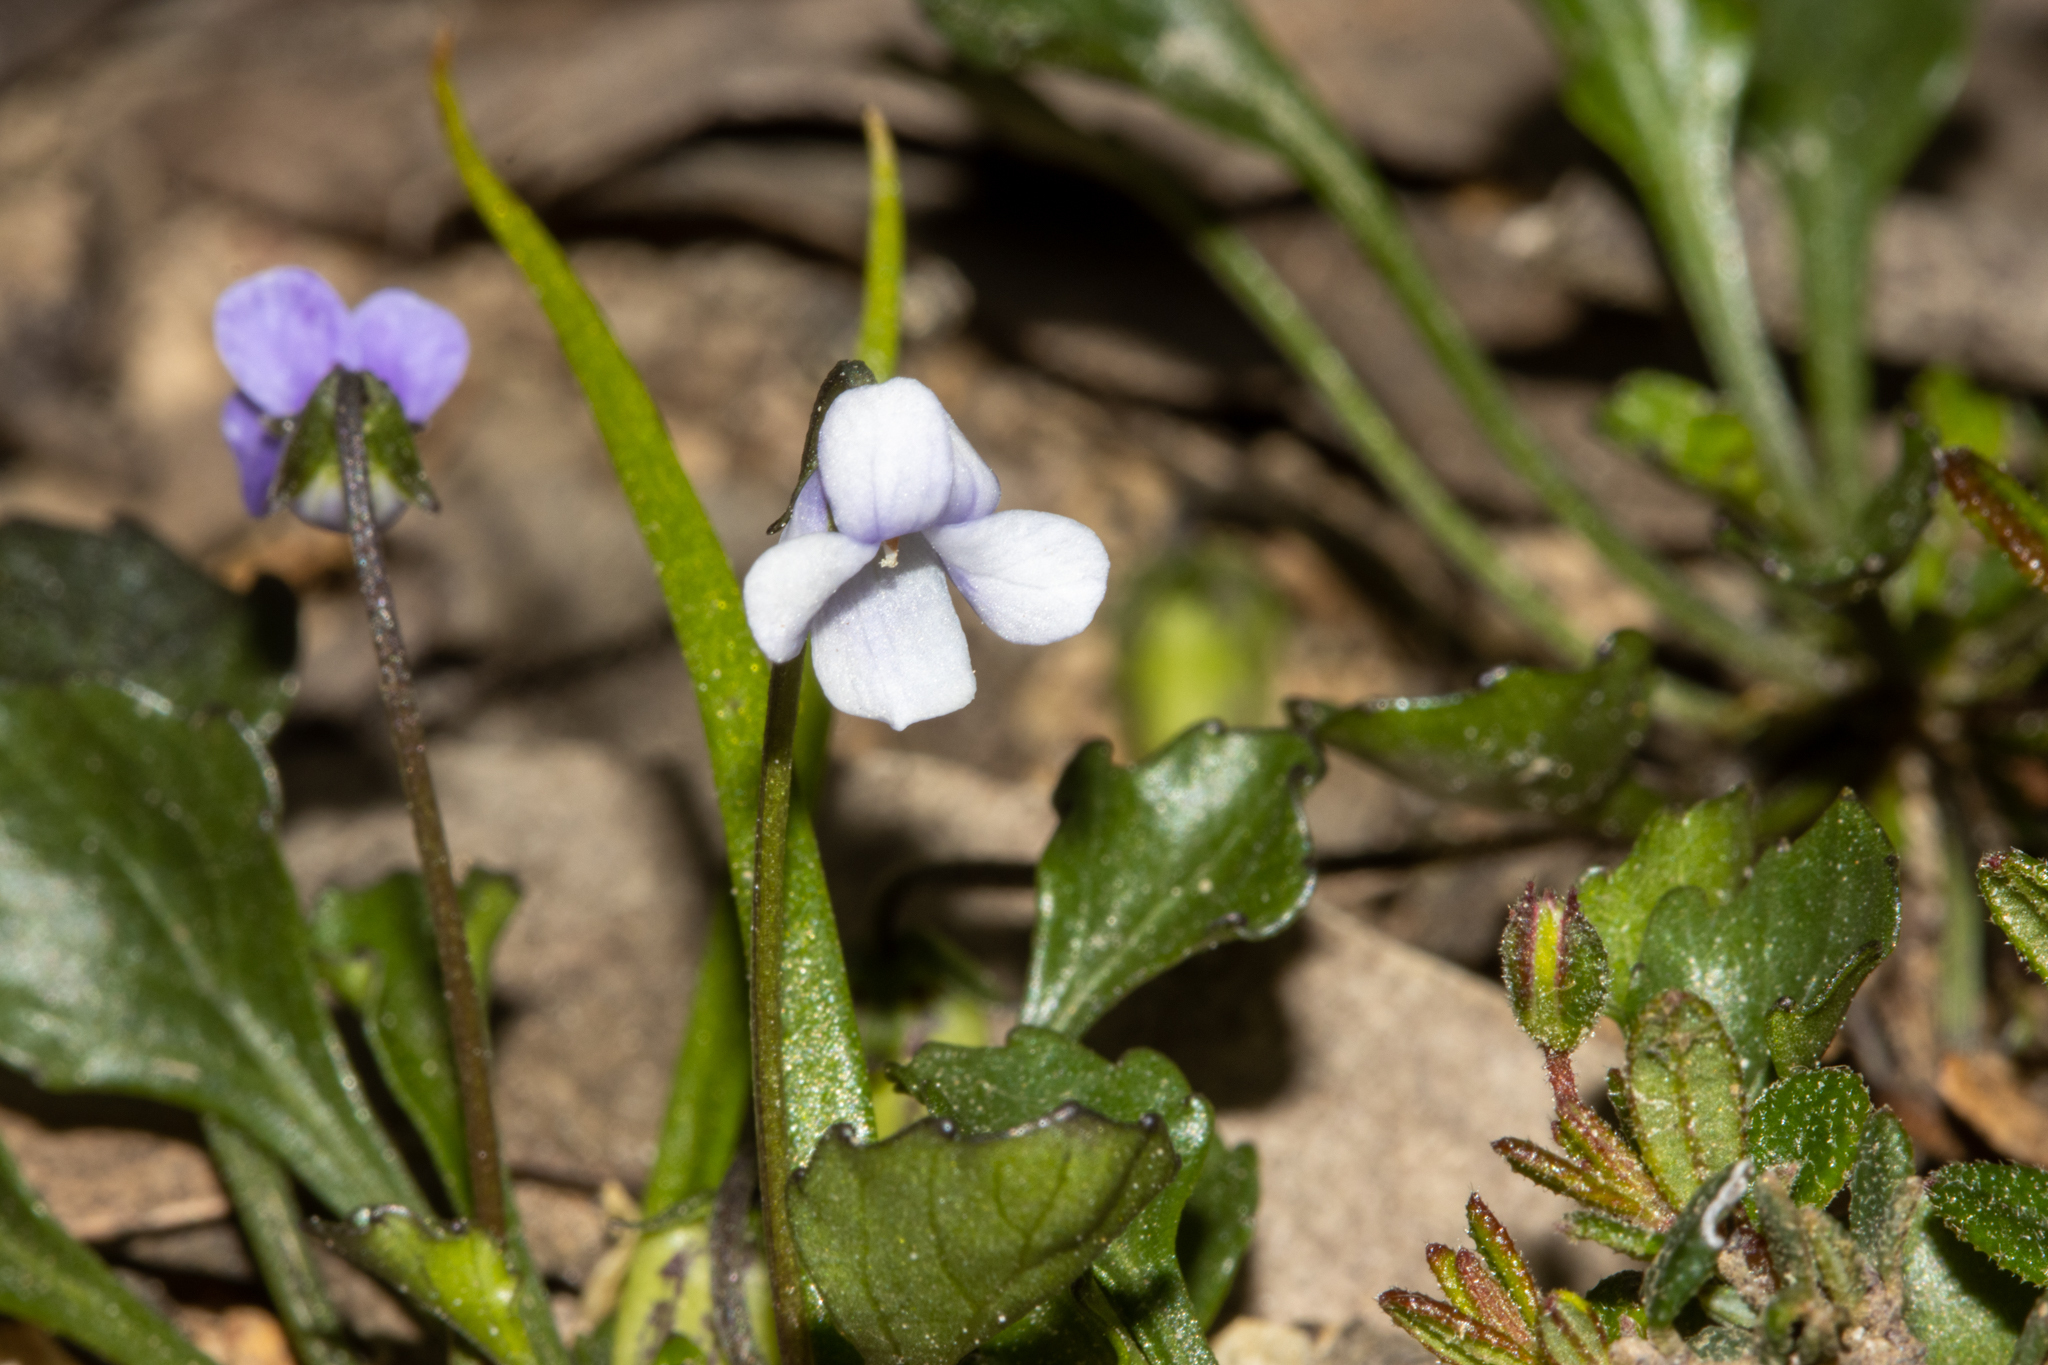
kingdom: Plantae
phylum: Tracheophyta
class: Magnoliopsida
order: Malpighiales
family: Violaceae
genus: Viola
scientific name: Viola sieberiana
